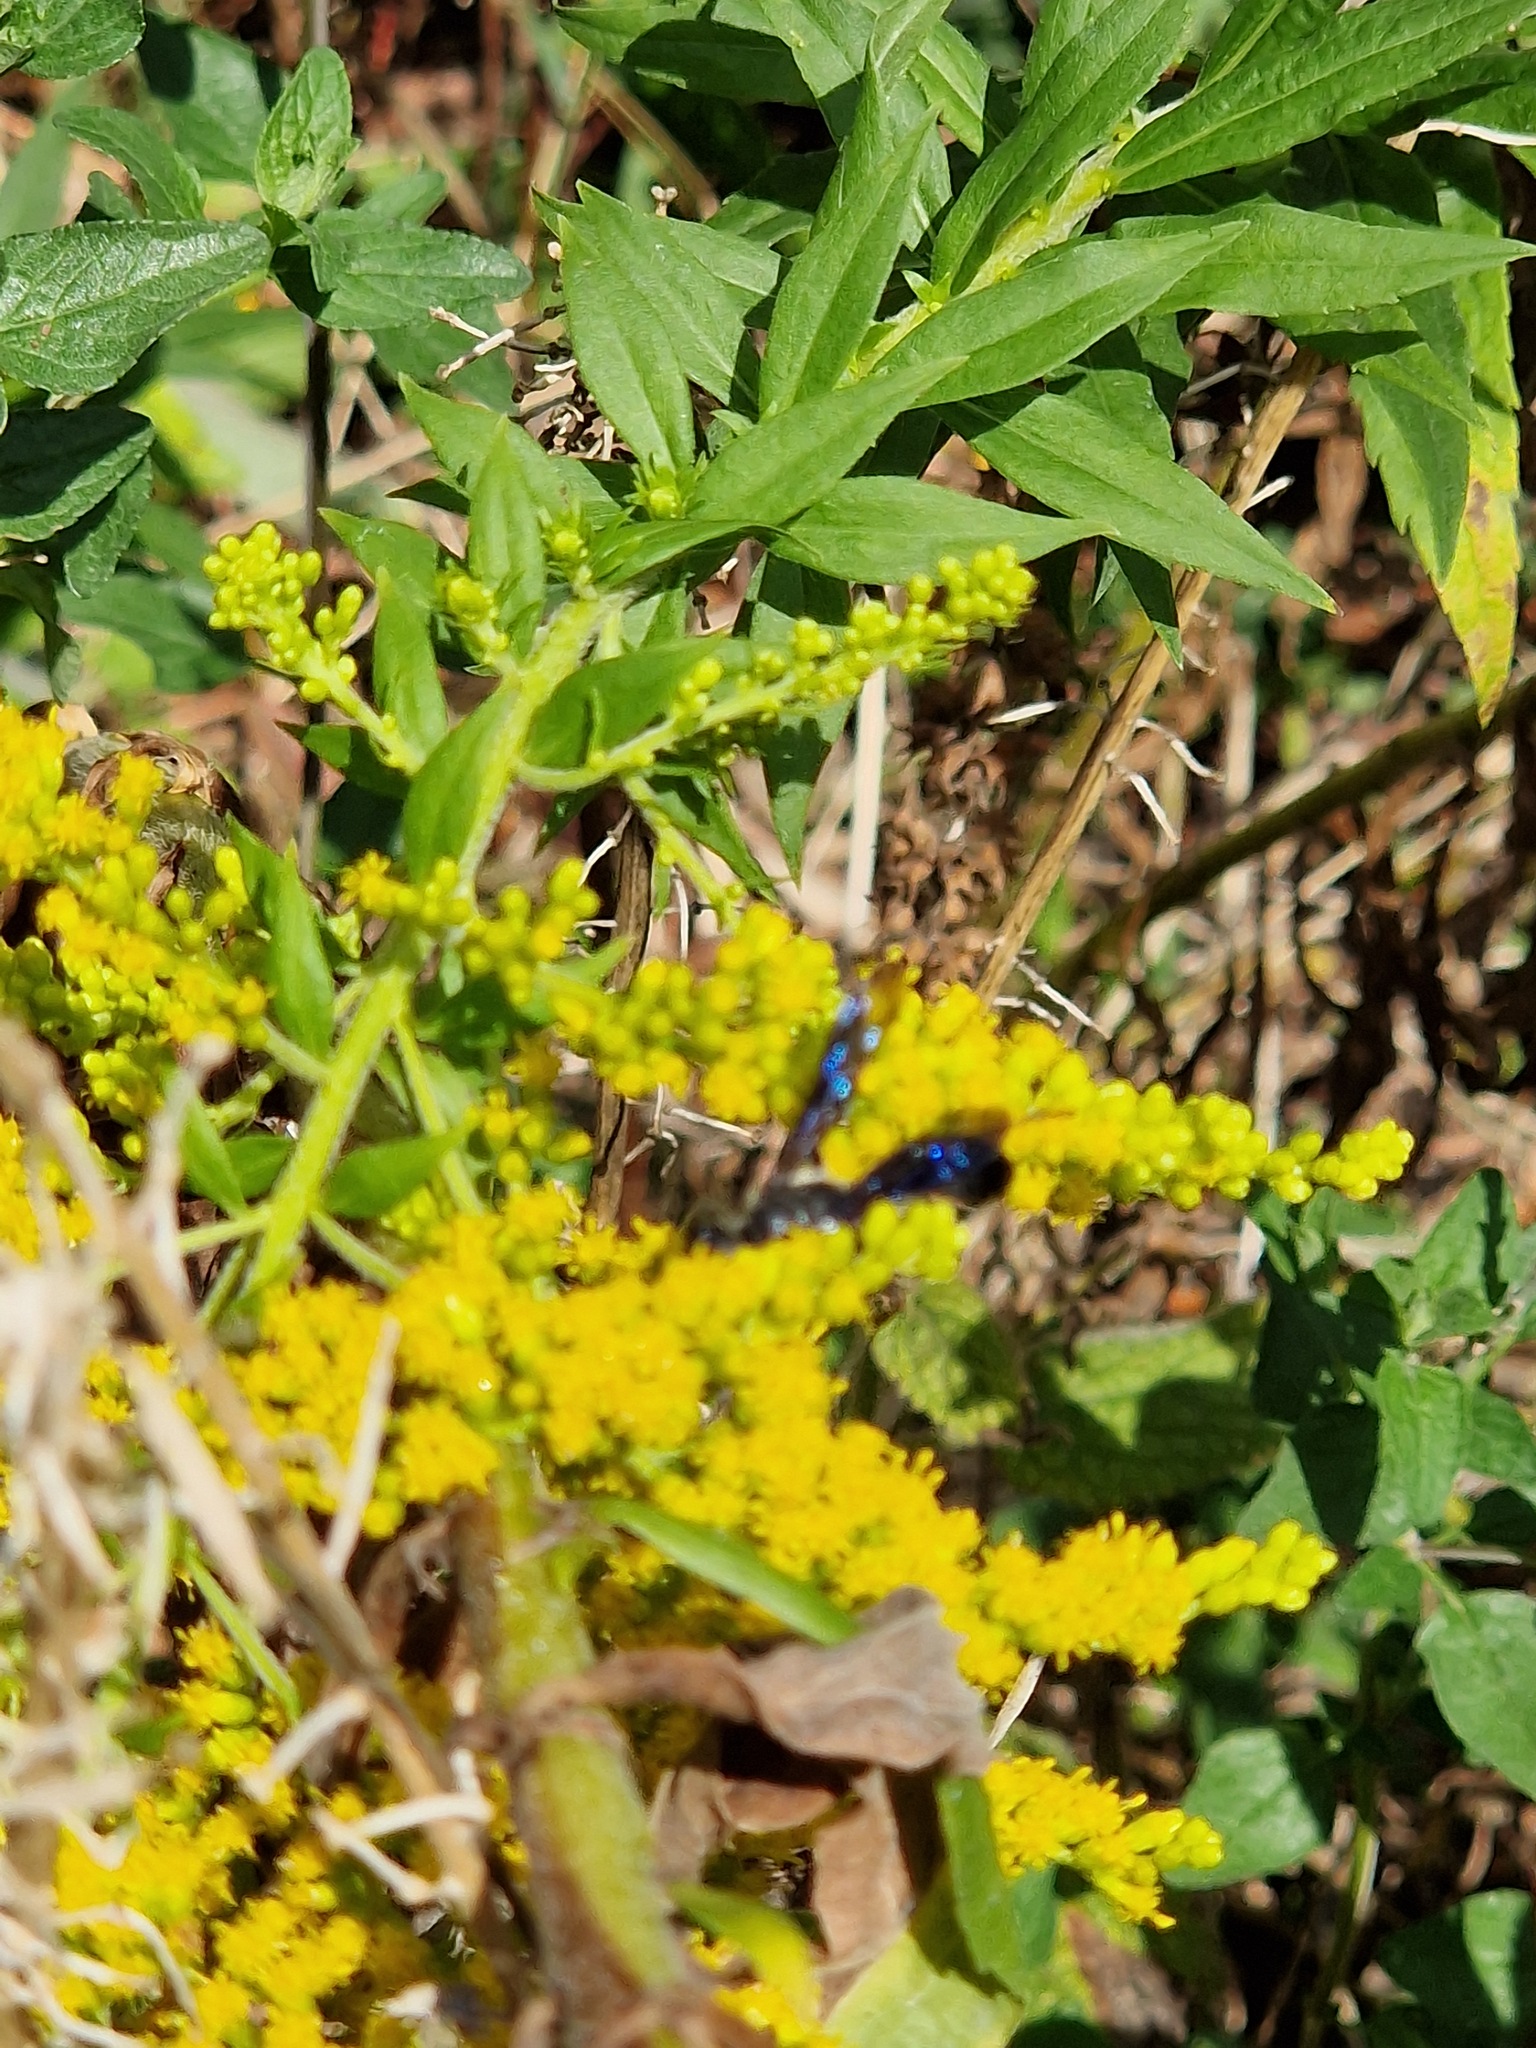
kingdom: Animalia
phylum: Arthropoda
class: Insecta
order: Hymenoptera
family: Sphecidae
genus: Isodontia
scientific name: Isodontia mexicana
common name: Mud dauber
